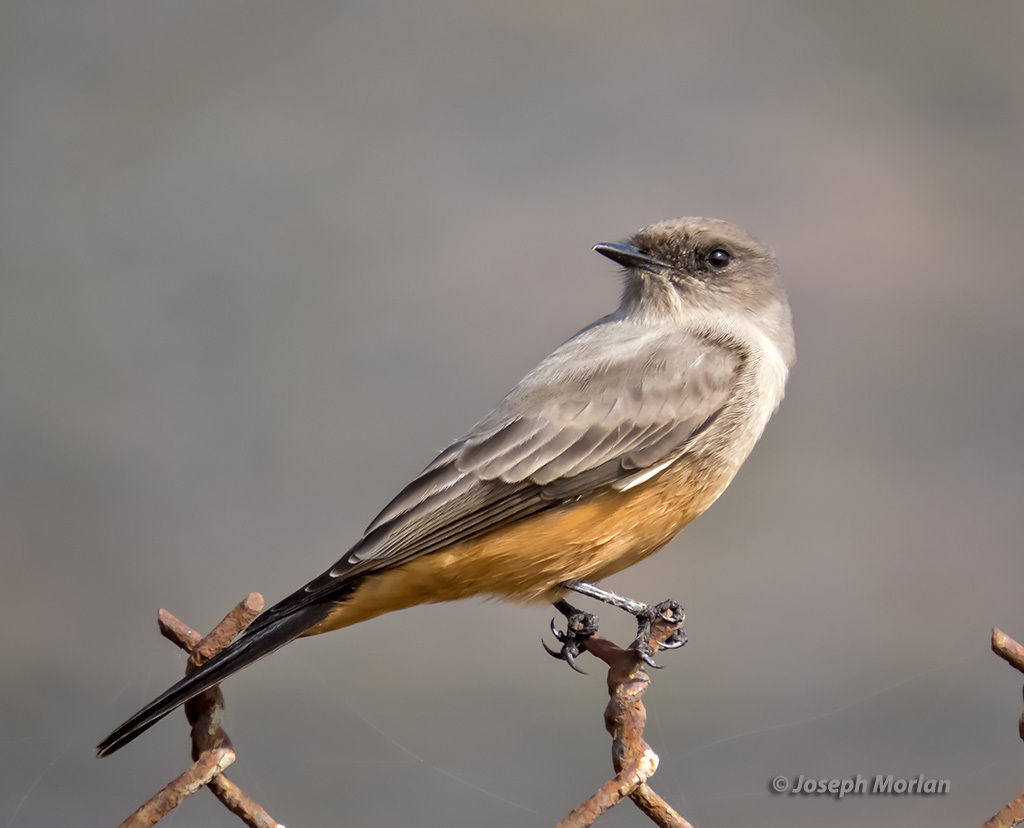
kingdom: Animalia
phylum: Chordata
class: Aves
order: Passeriformes
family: Tyrannidae
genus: Sayornis
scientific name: Sayornis saya
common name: Say's phoebe
